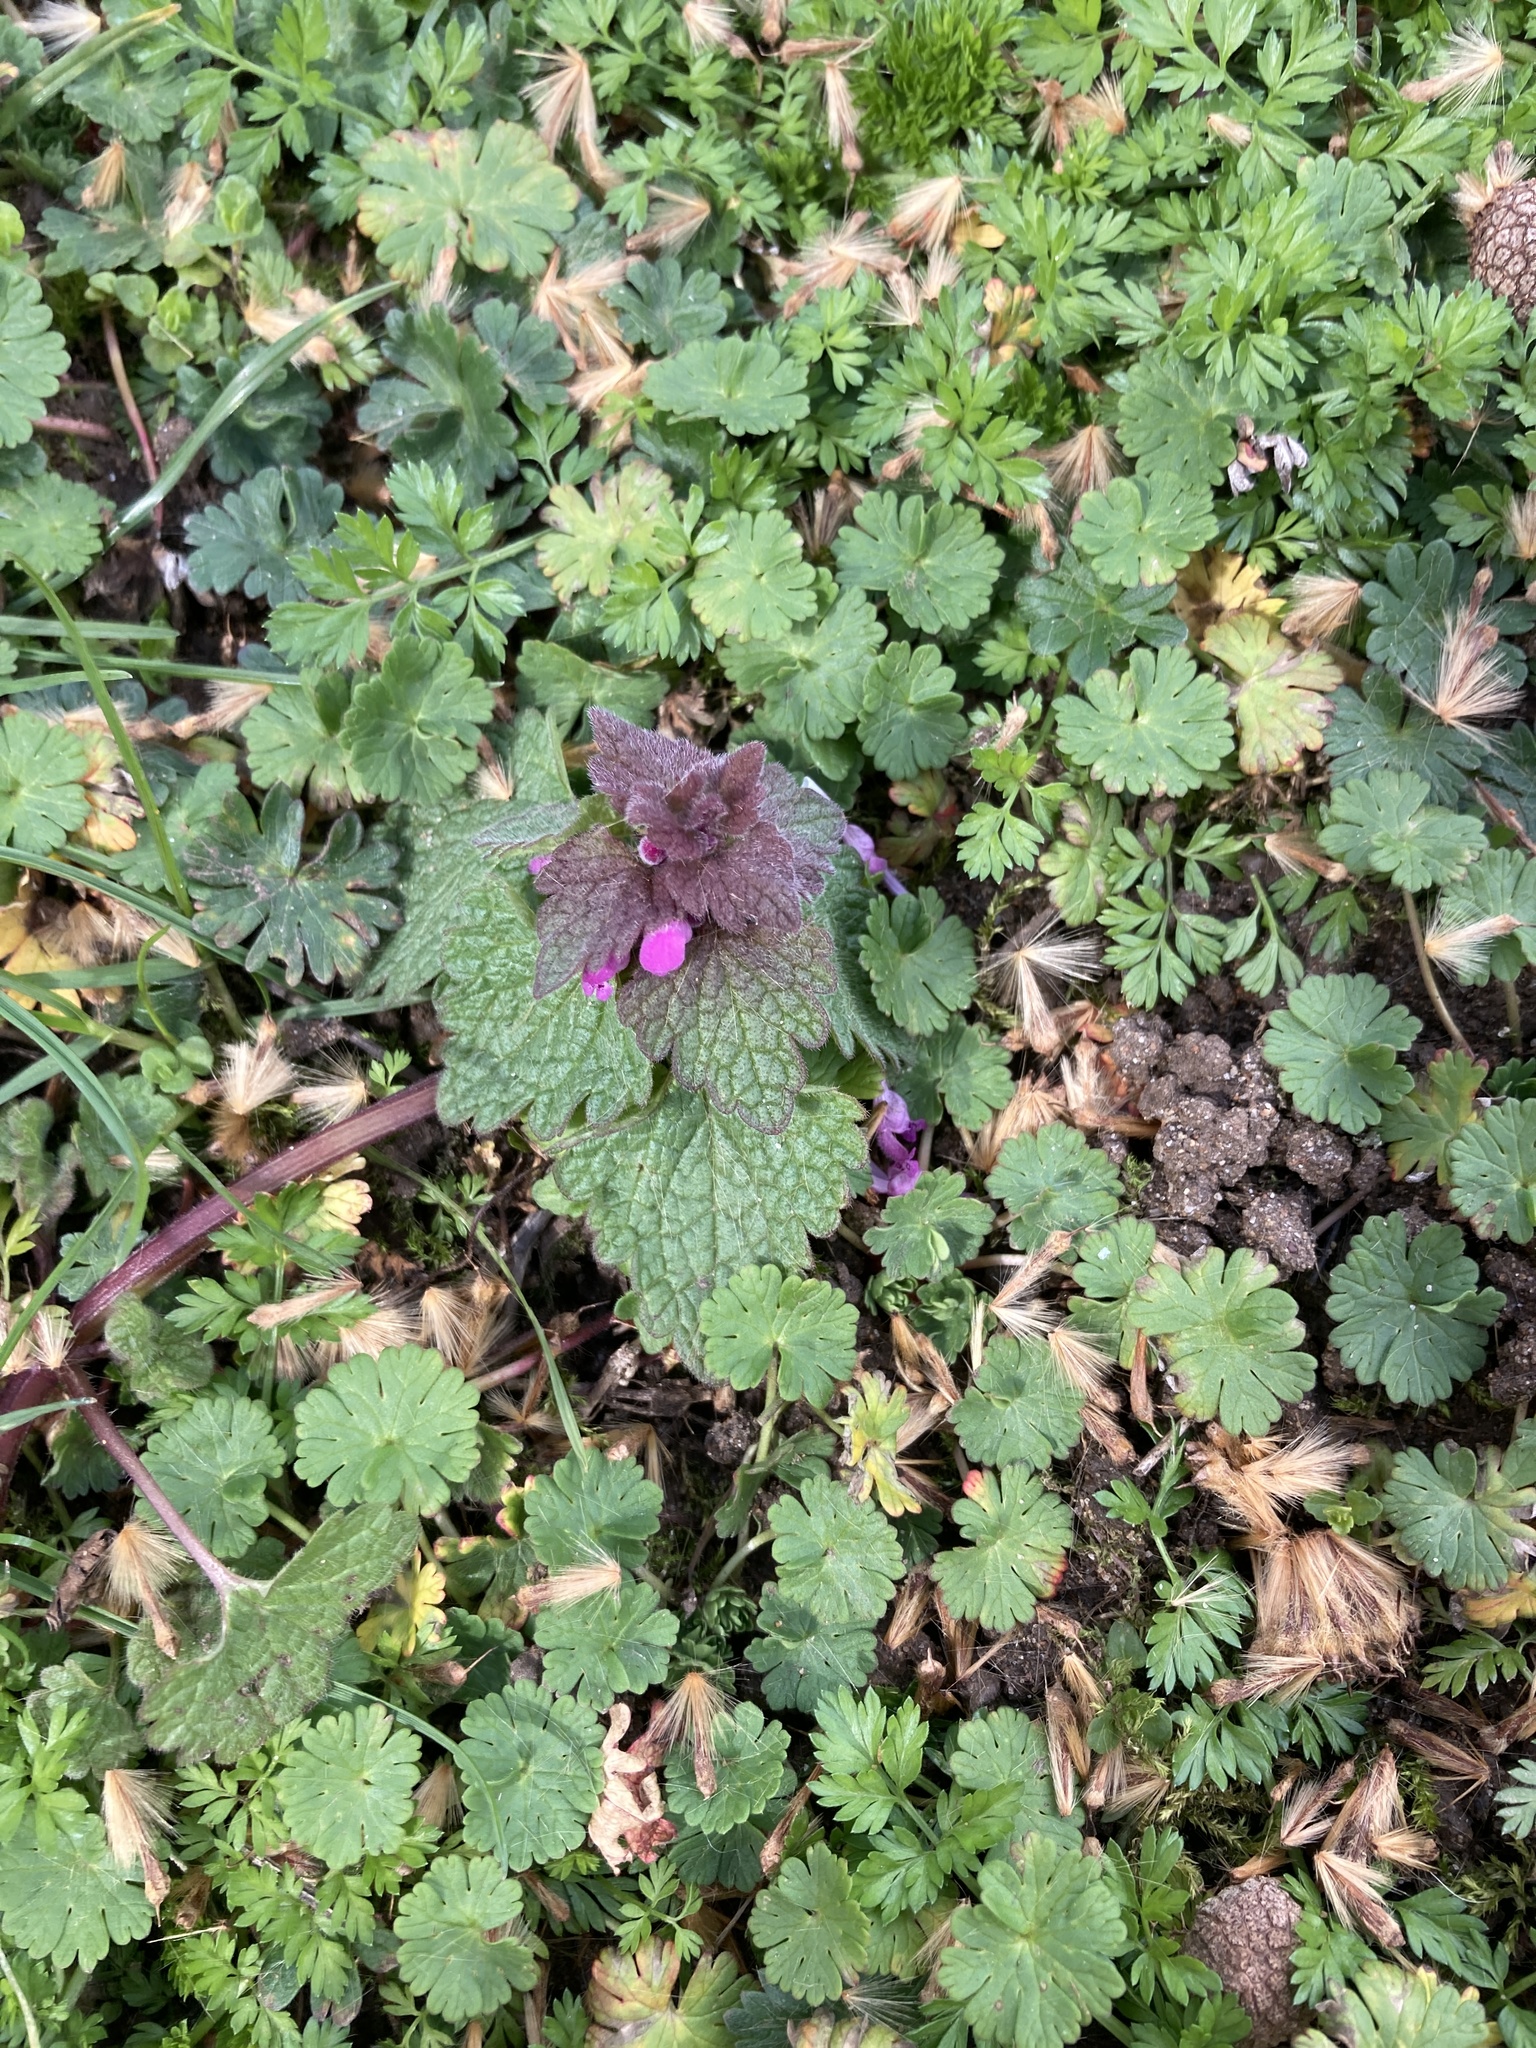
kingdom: Plantae
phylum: Tracheophyta
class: Magnoliopsida
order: Lamiales
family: Lamiaceae
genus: Lamium
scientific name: Lamium purpureum
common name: Red dead-nettle
